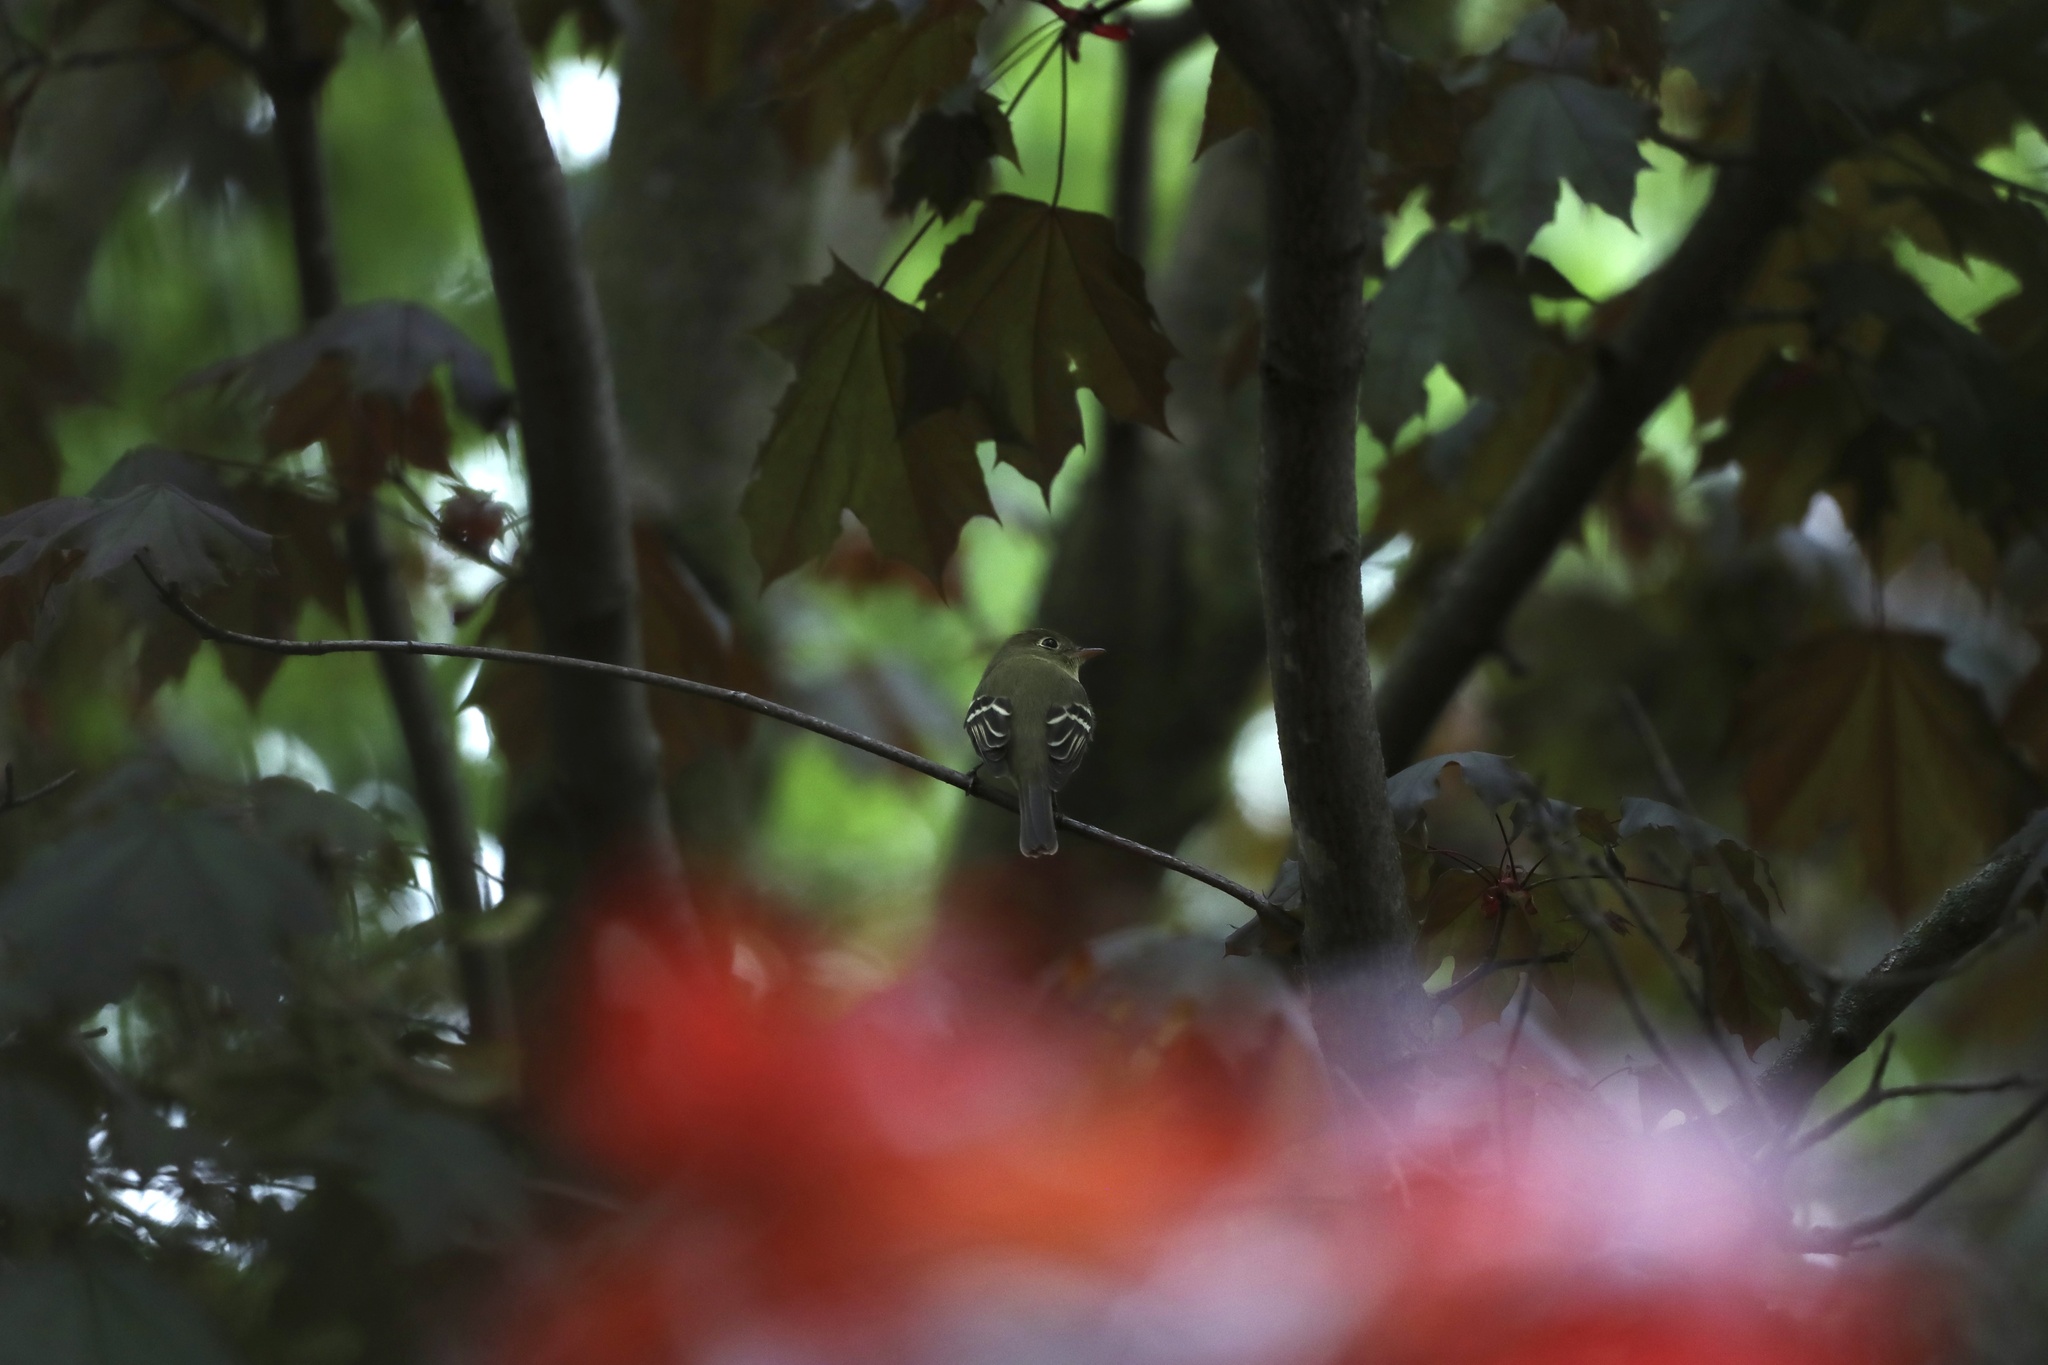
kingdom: Animalia
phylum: Chordata
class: Aves
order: Passeriformes
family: Tyrannidae
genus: Empidonax
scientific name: Empidonax flaviventris
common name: Yellow-bellied flycatcher
